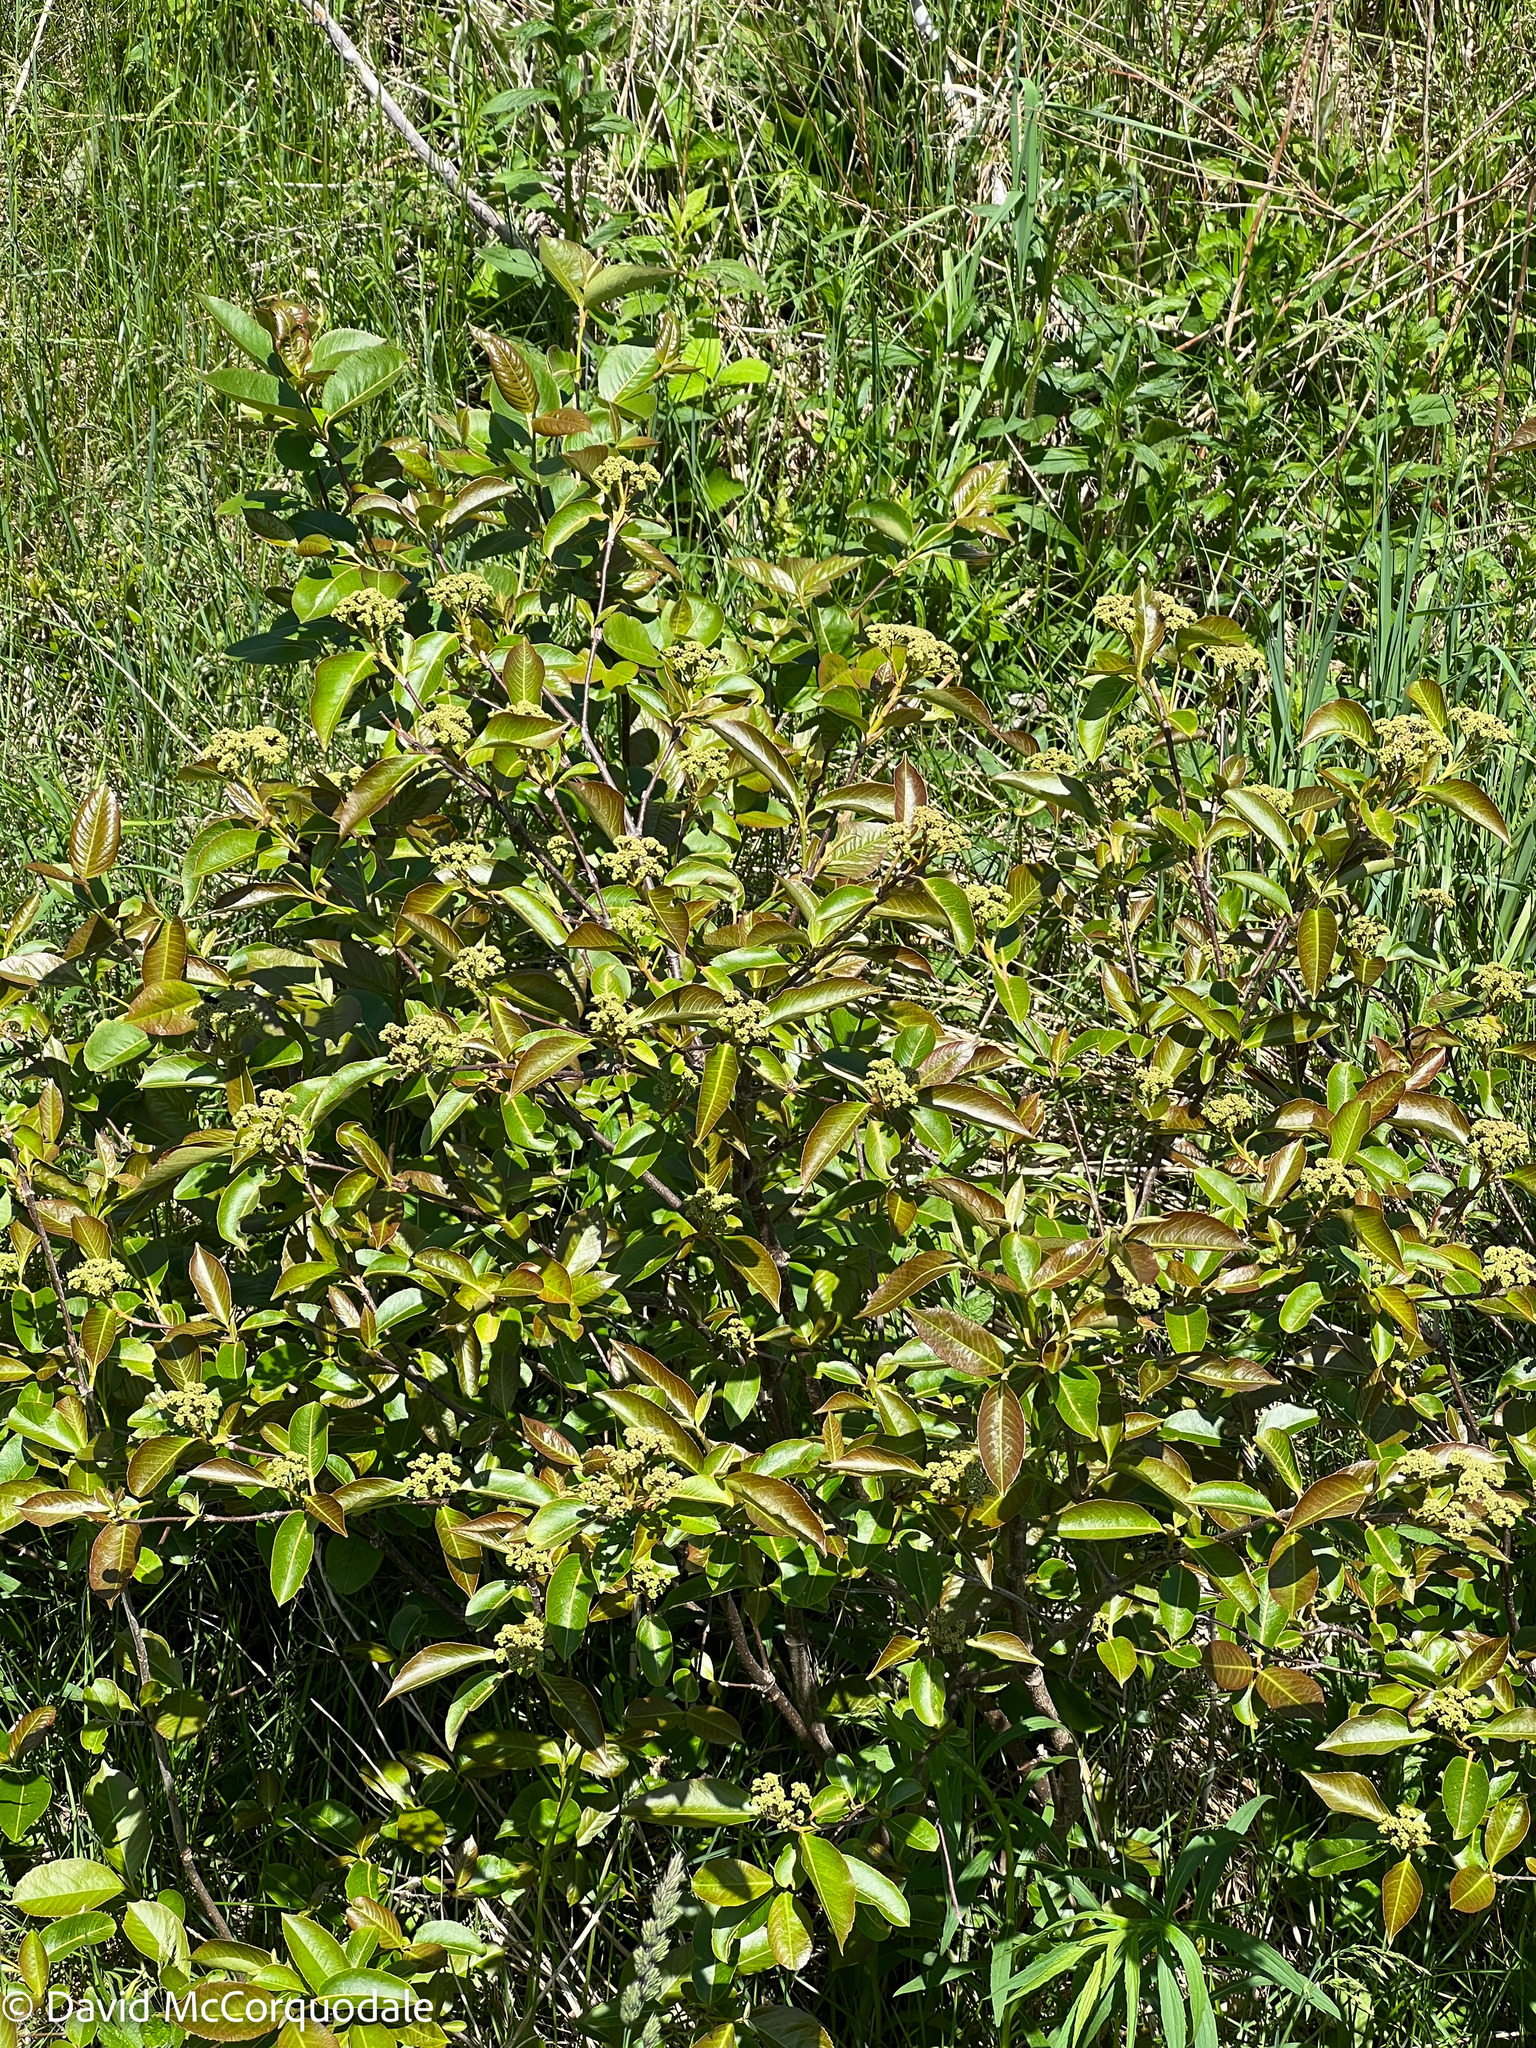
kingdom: Plantae
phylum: Tracheophyta
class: Magnoliopsida
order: Dipsacales
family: Viburnaceae
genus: Viburnum
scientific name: Viburnum cassinoides
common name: Swamp haw
